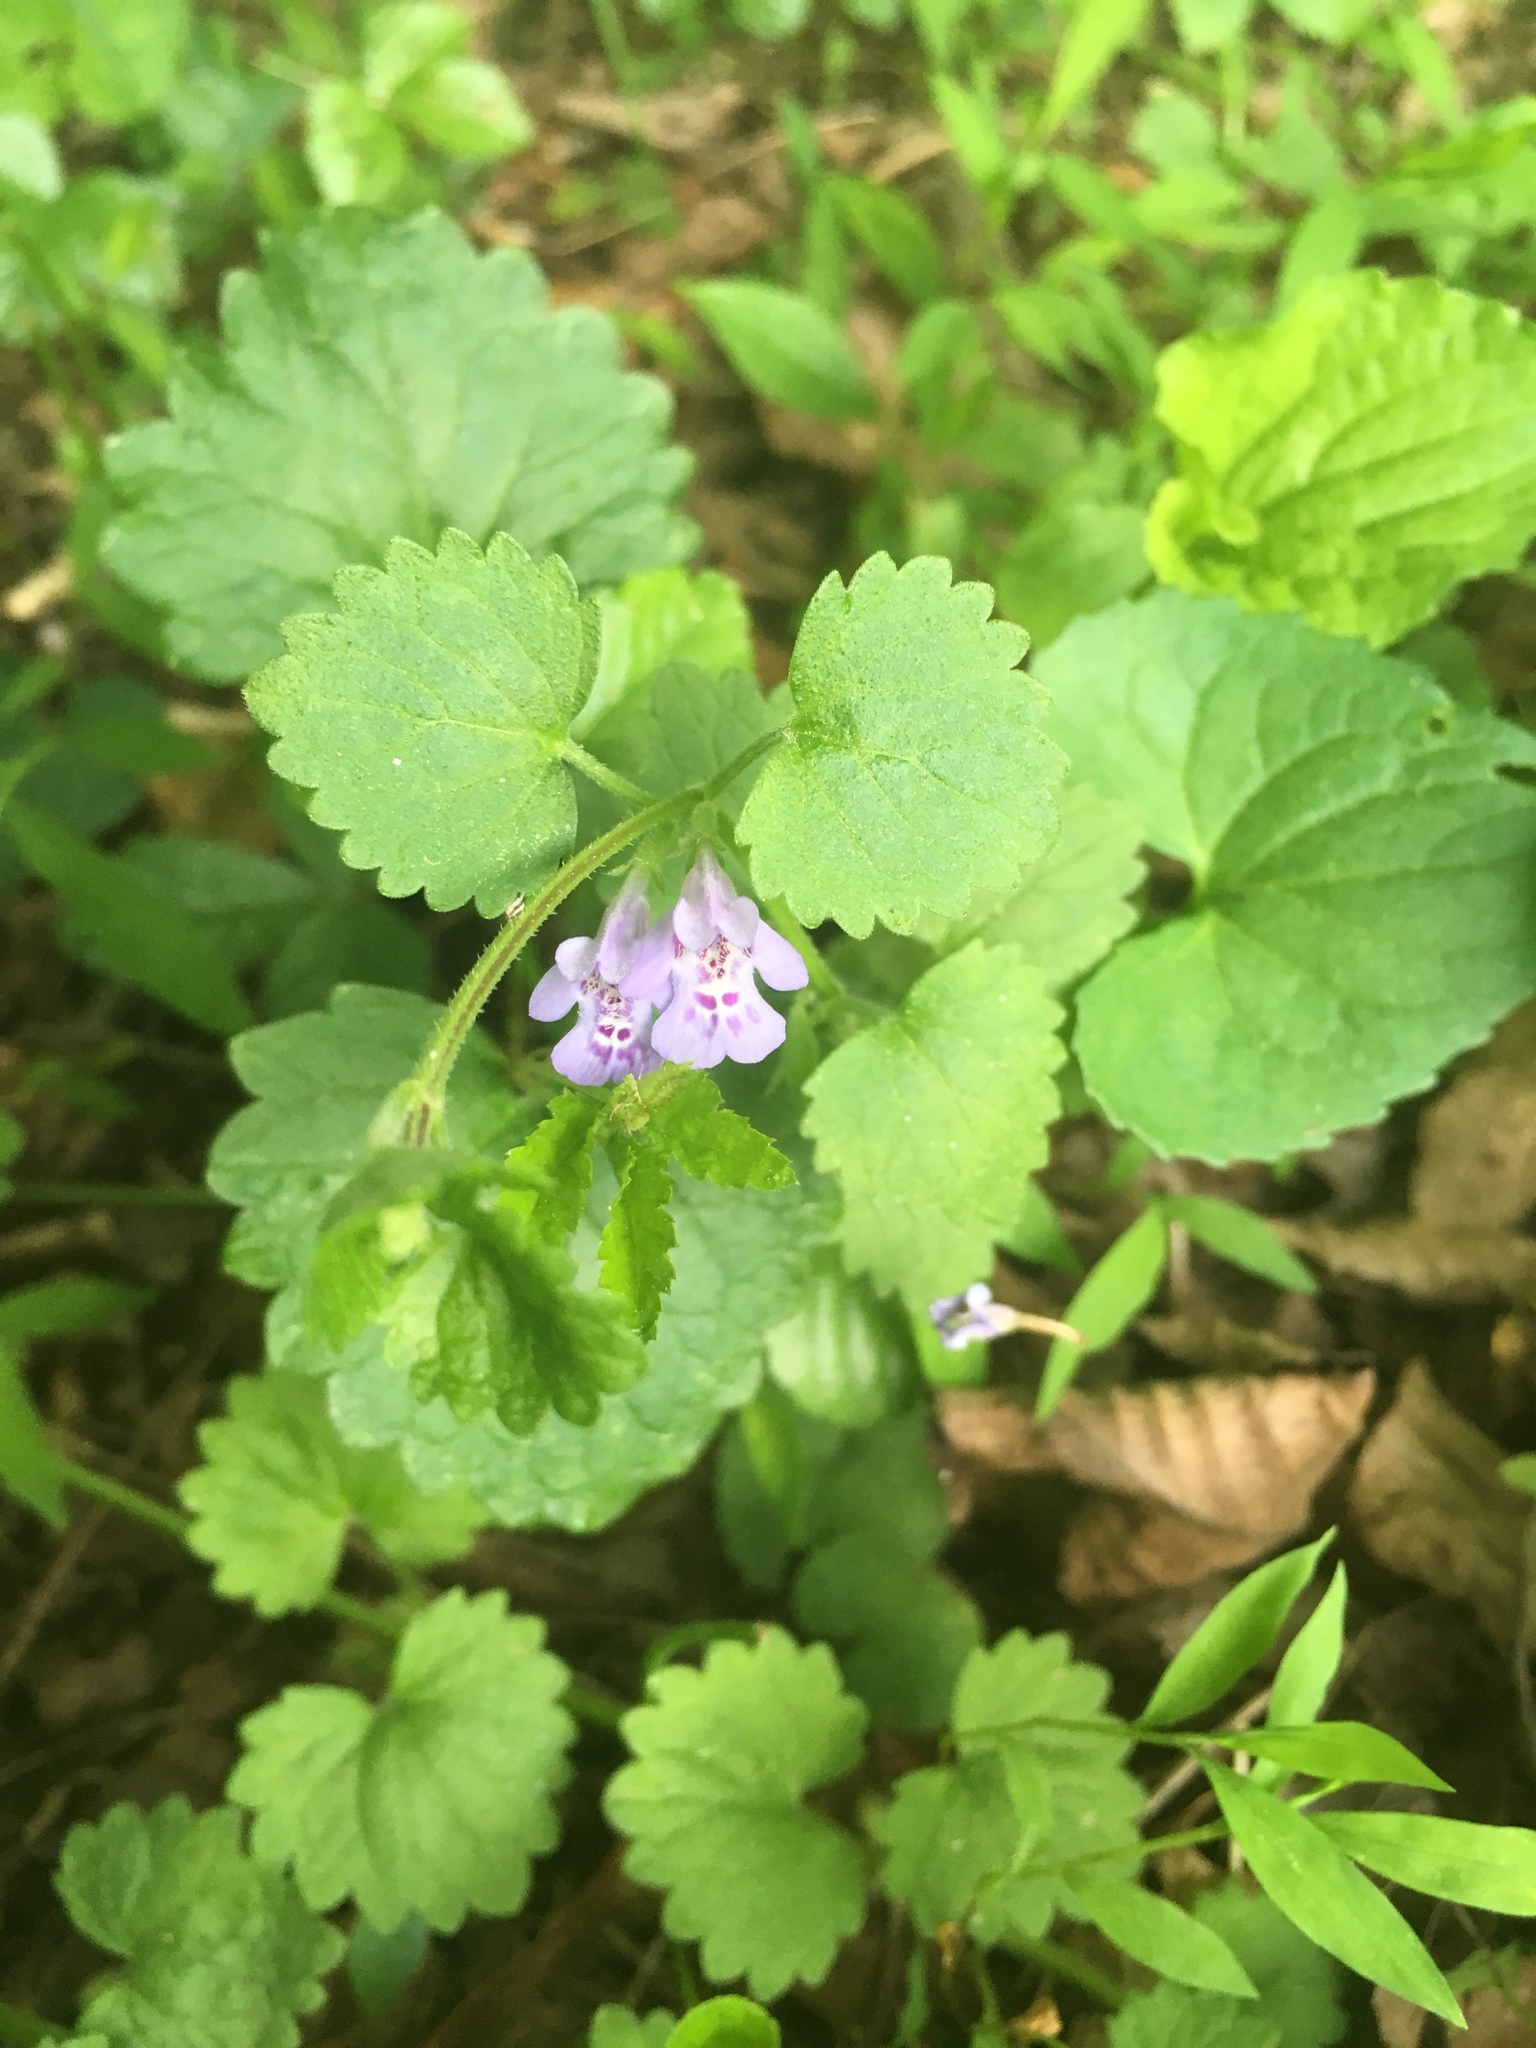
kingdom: Plantae
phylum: Tracheophyta
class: Magnoliopsida
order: Lamiales
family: Lamiaceae
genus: Glechoma
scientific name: Glechoma hederacea
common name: Ground ivy
